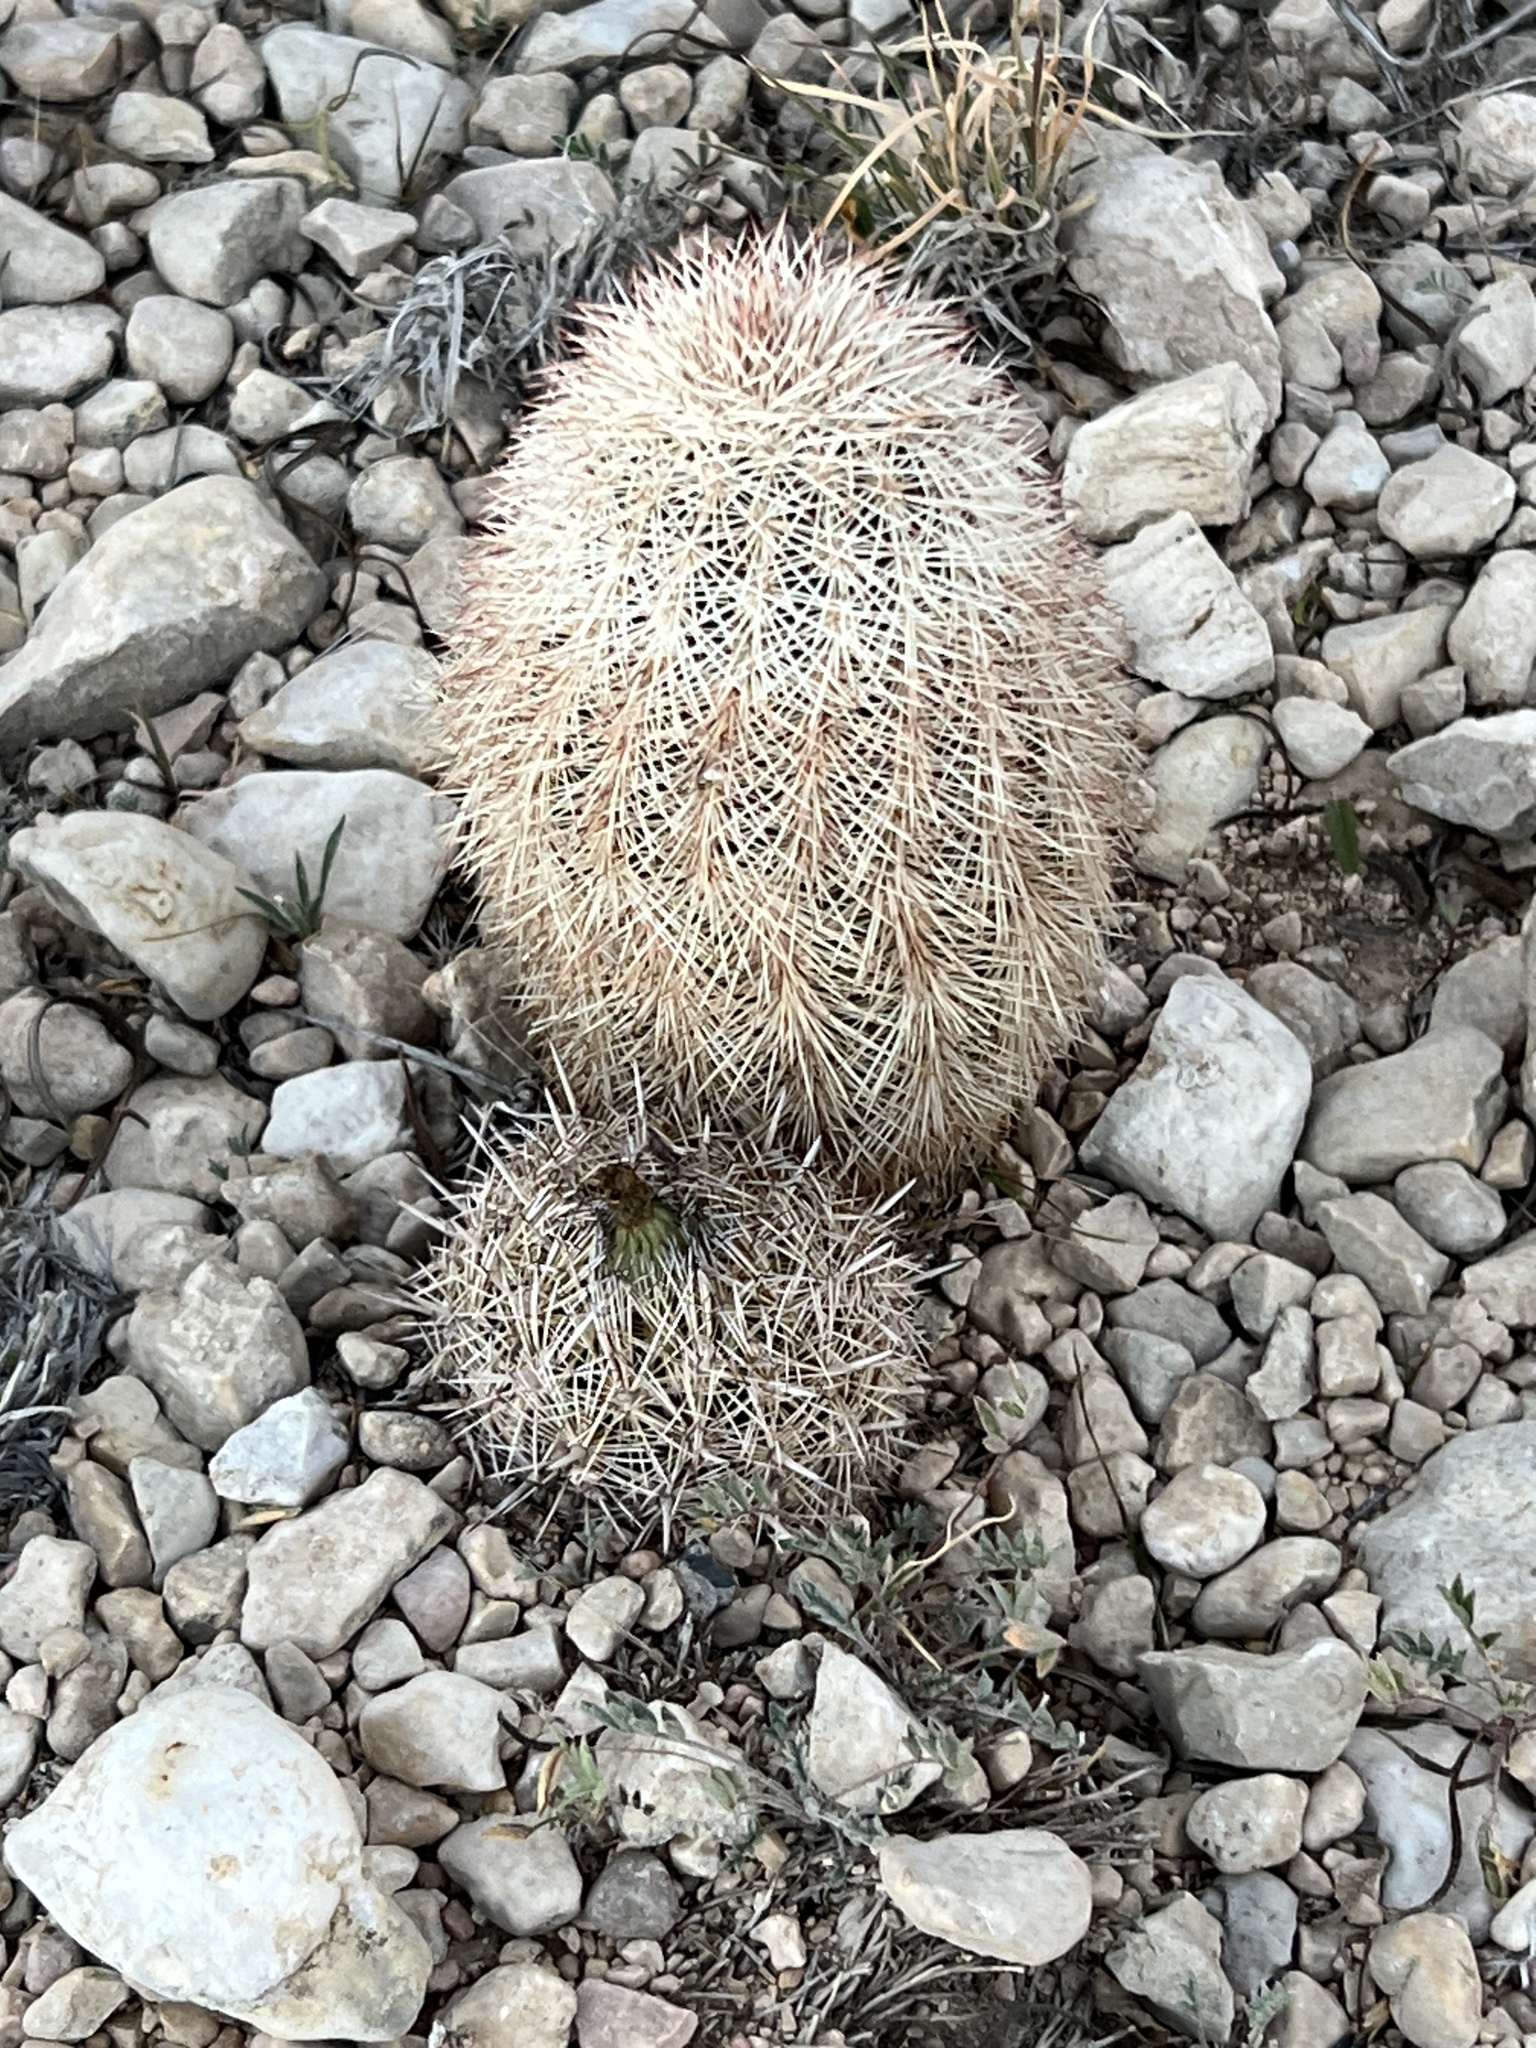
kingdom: Plantae
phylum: Tracheophyta
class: Magnoliopsida
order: Caryophyllales
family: Cactaceae
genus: Echinocereus
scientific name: Echinocereus dasyacanthus
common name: Spiny hedgehog cactus
